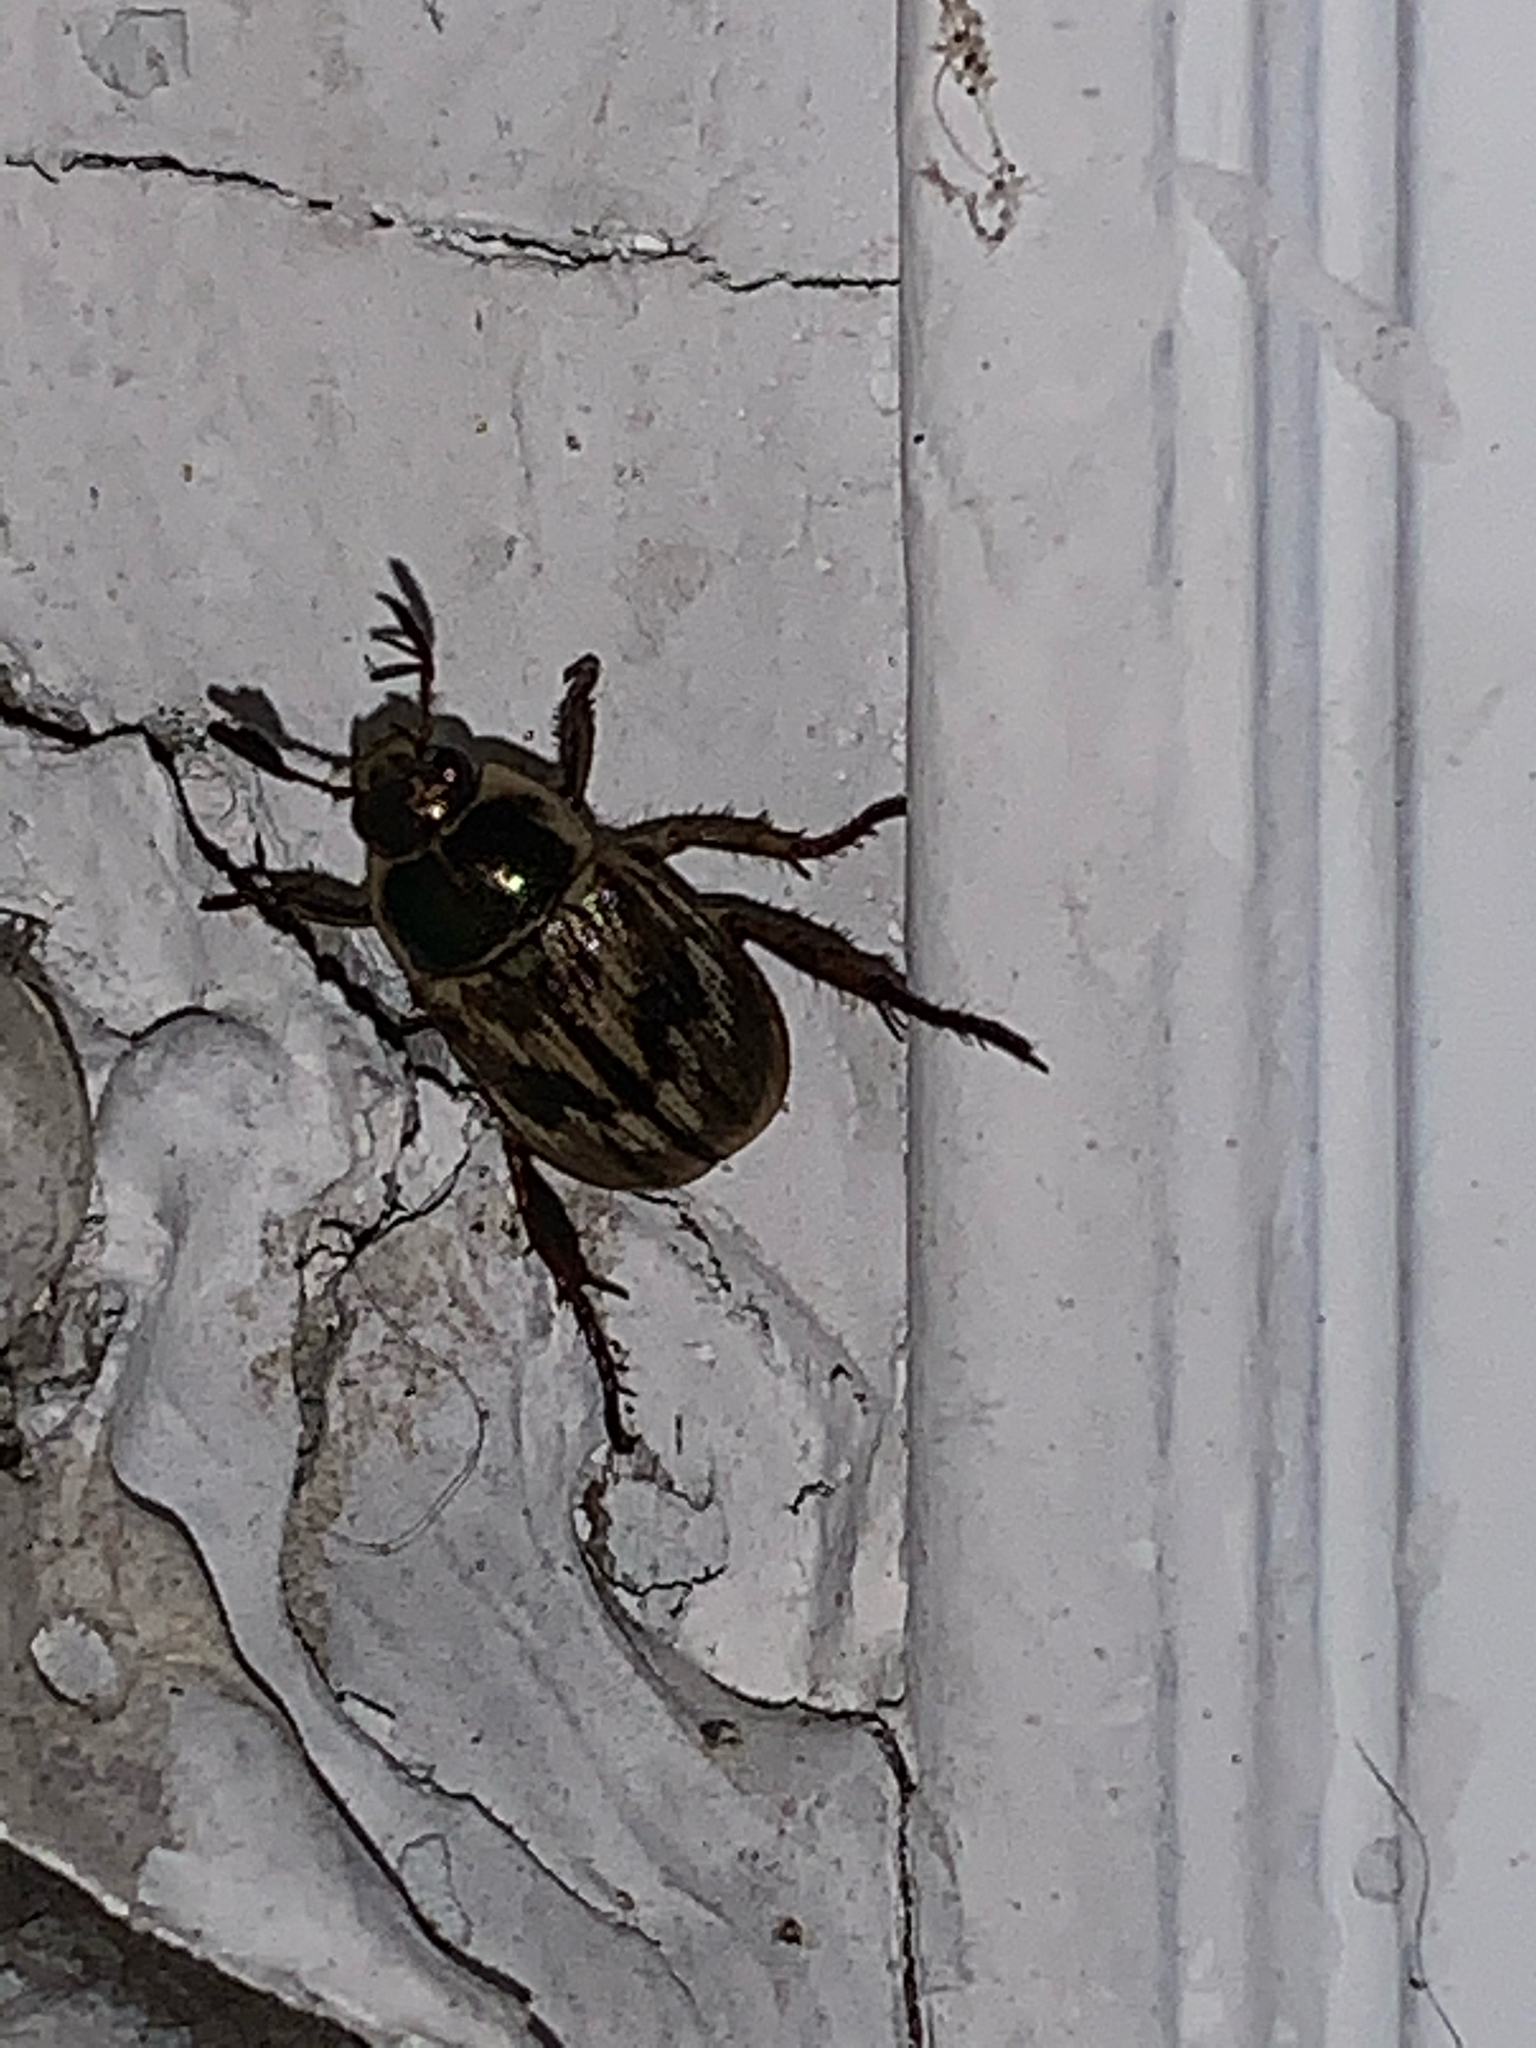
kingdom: Animalia
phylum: Arthropoda
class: Insecta
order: Coleoptera
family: Scarabaeidae
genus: Exomala
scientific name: Exomala orientalis
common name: Oriental beetle
